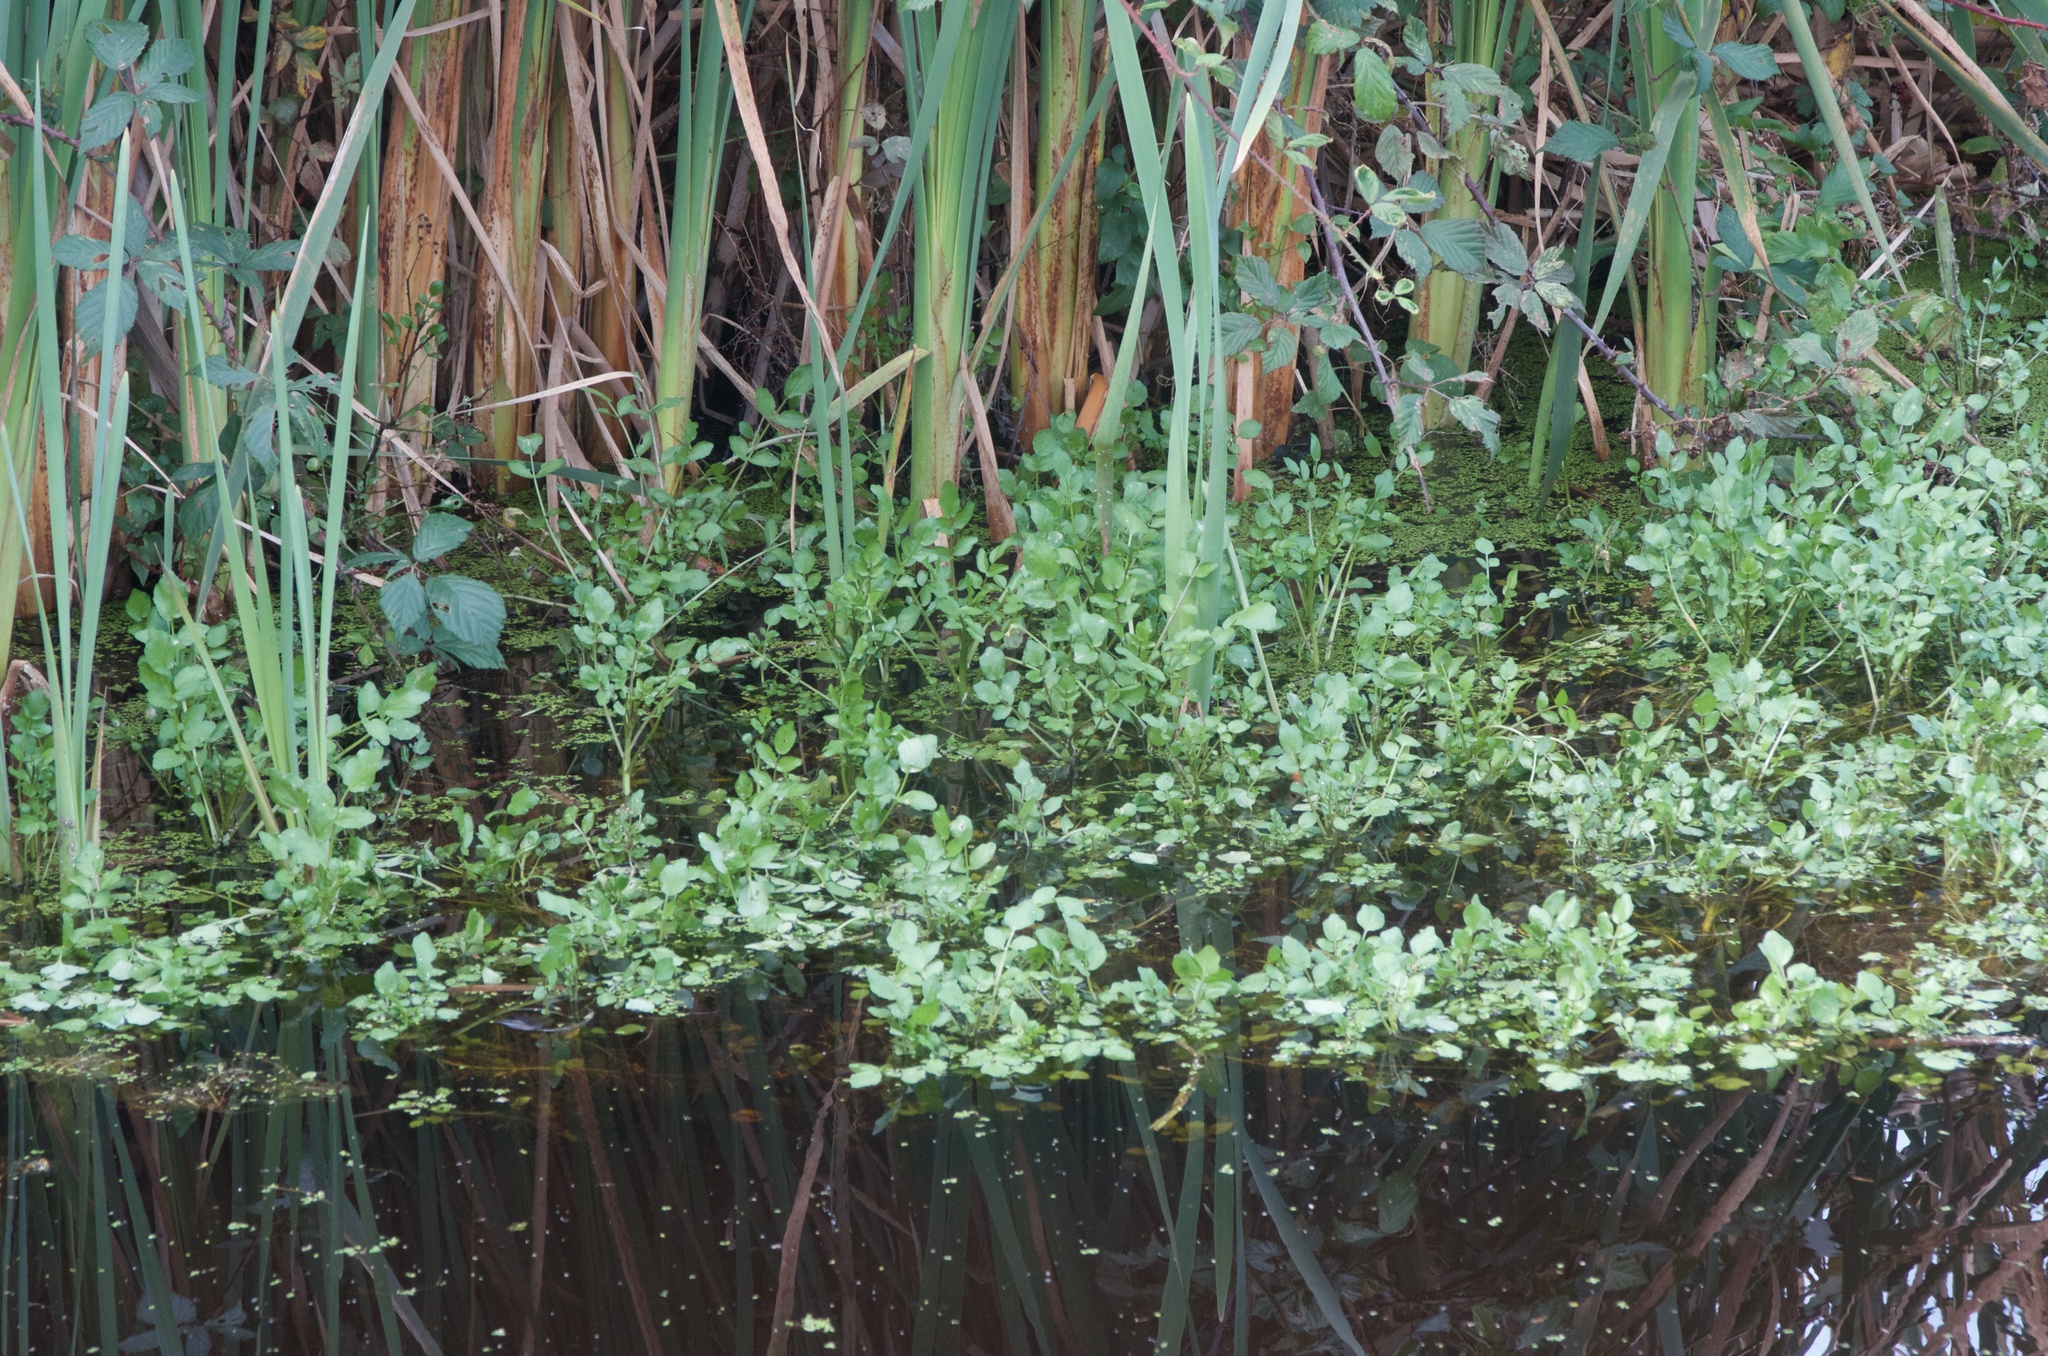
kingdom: Plantae
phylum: Tracheophyta
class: Magnoliopsida
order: Brassicales
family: Brassicaceae
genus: Nasturtium
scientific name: Nasturtium officinale
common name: Watercress
